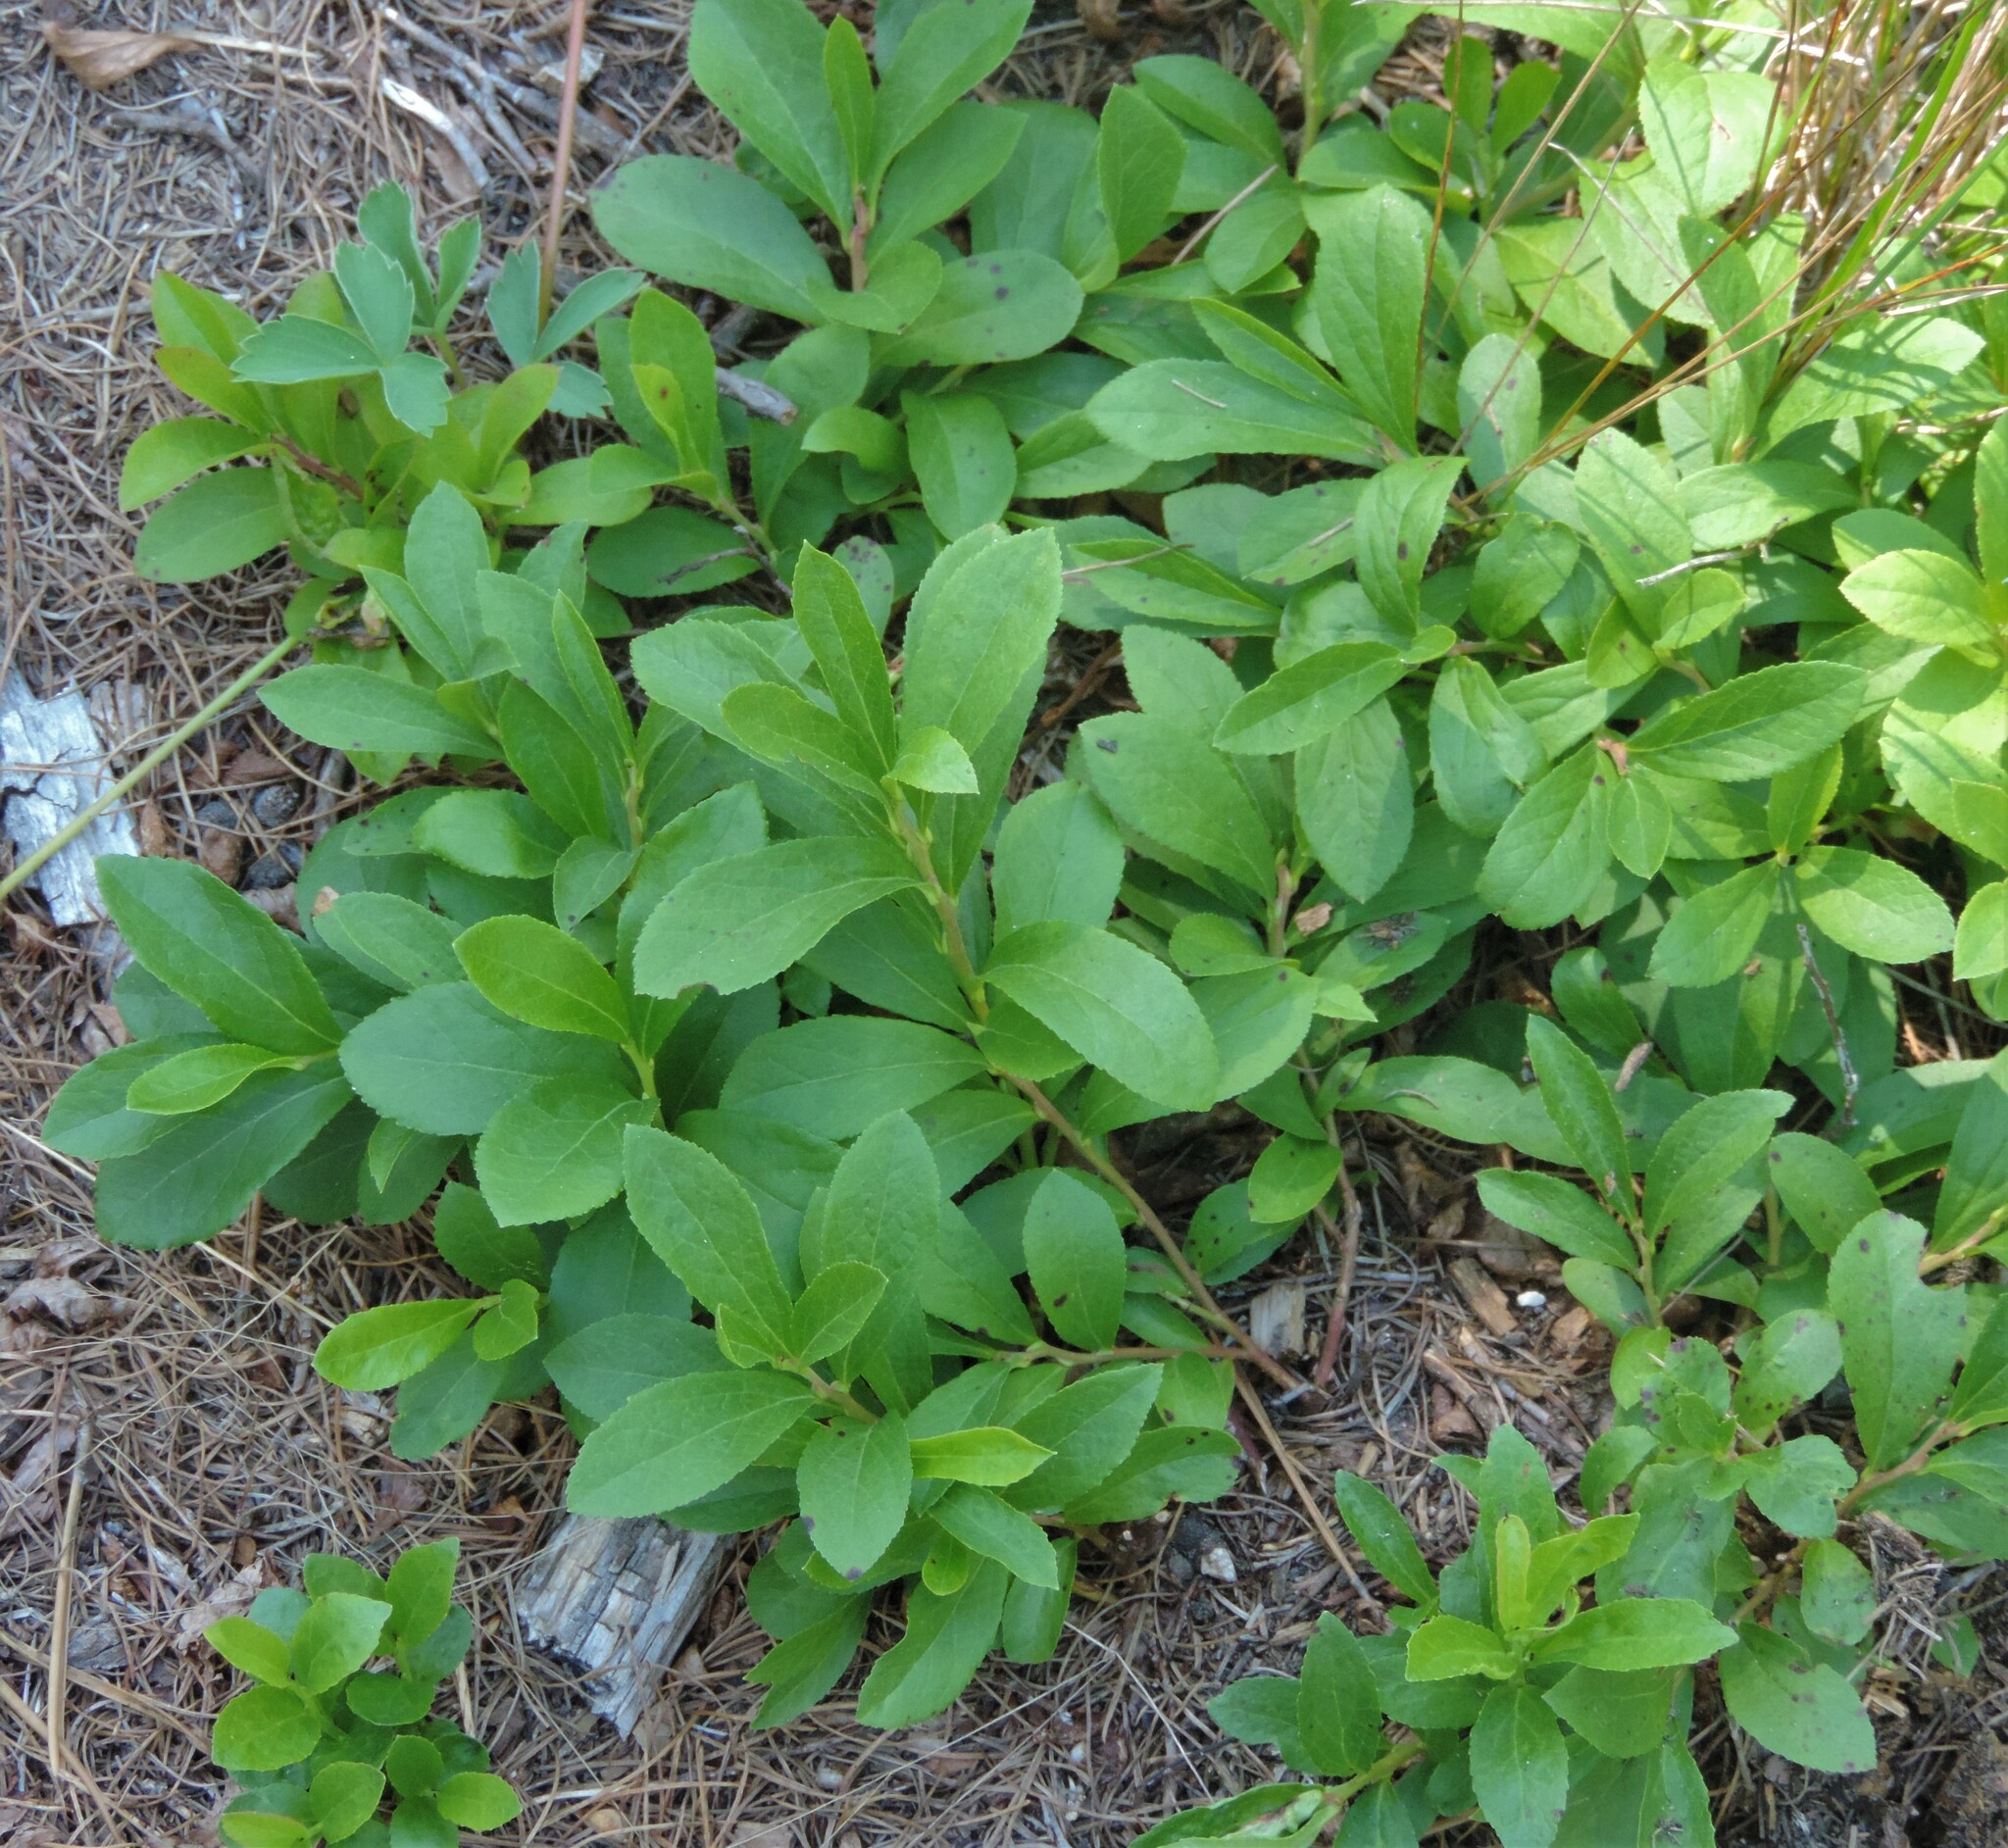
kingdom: Plantae
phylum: Tracheophyta
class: Magnoliopsida
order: Ericales
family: Ericaceae
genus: Vaccinium
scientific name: Vaccinium cespitosum
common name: Dwarf bilberry
